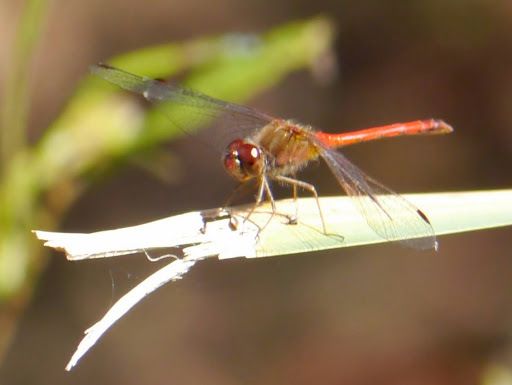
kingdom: Animalia
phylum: Arthropoda
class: Insecta
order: Odonata
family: Libellulidae
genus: Sympetrum
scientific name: Sympetrum vicinum
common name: Autumn meadowhawk
